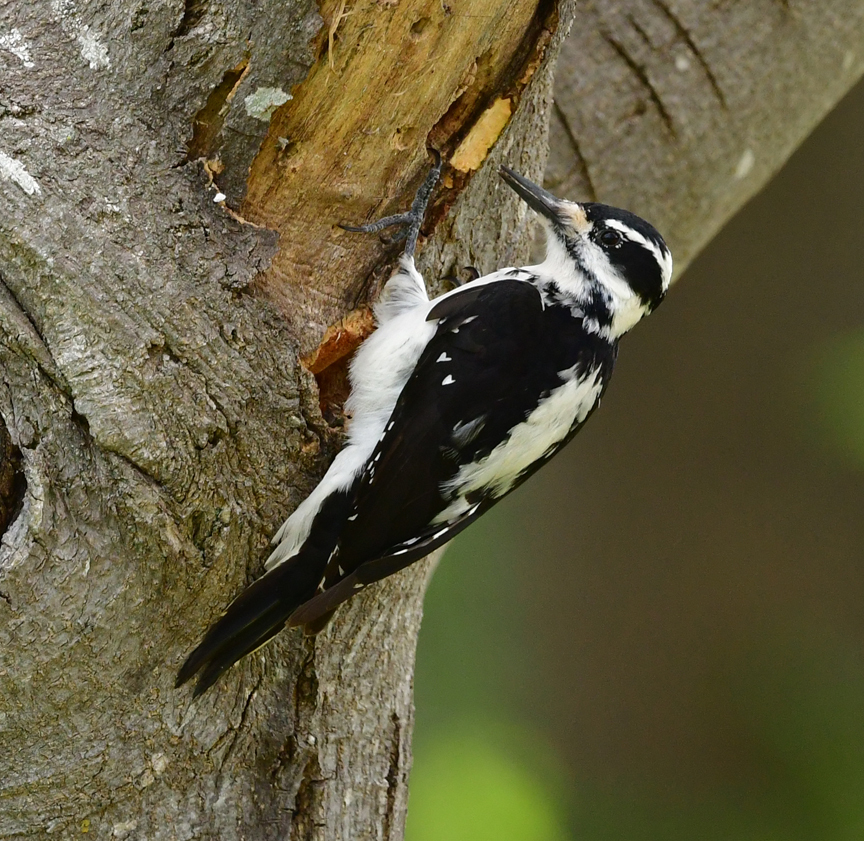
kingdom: Animalia
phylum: Chordata
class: Aves
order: Piciformes
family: Picidae
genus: Leuconotopicus
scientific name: Leuconotopicus villosus
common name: Hairy woodpecker
